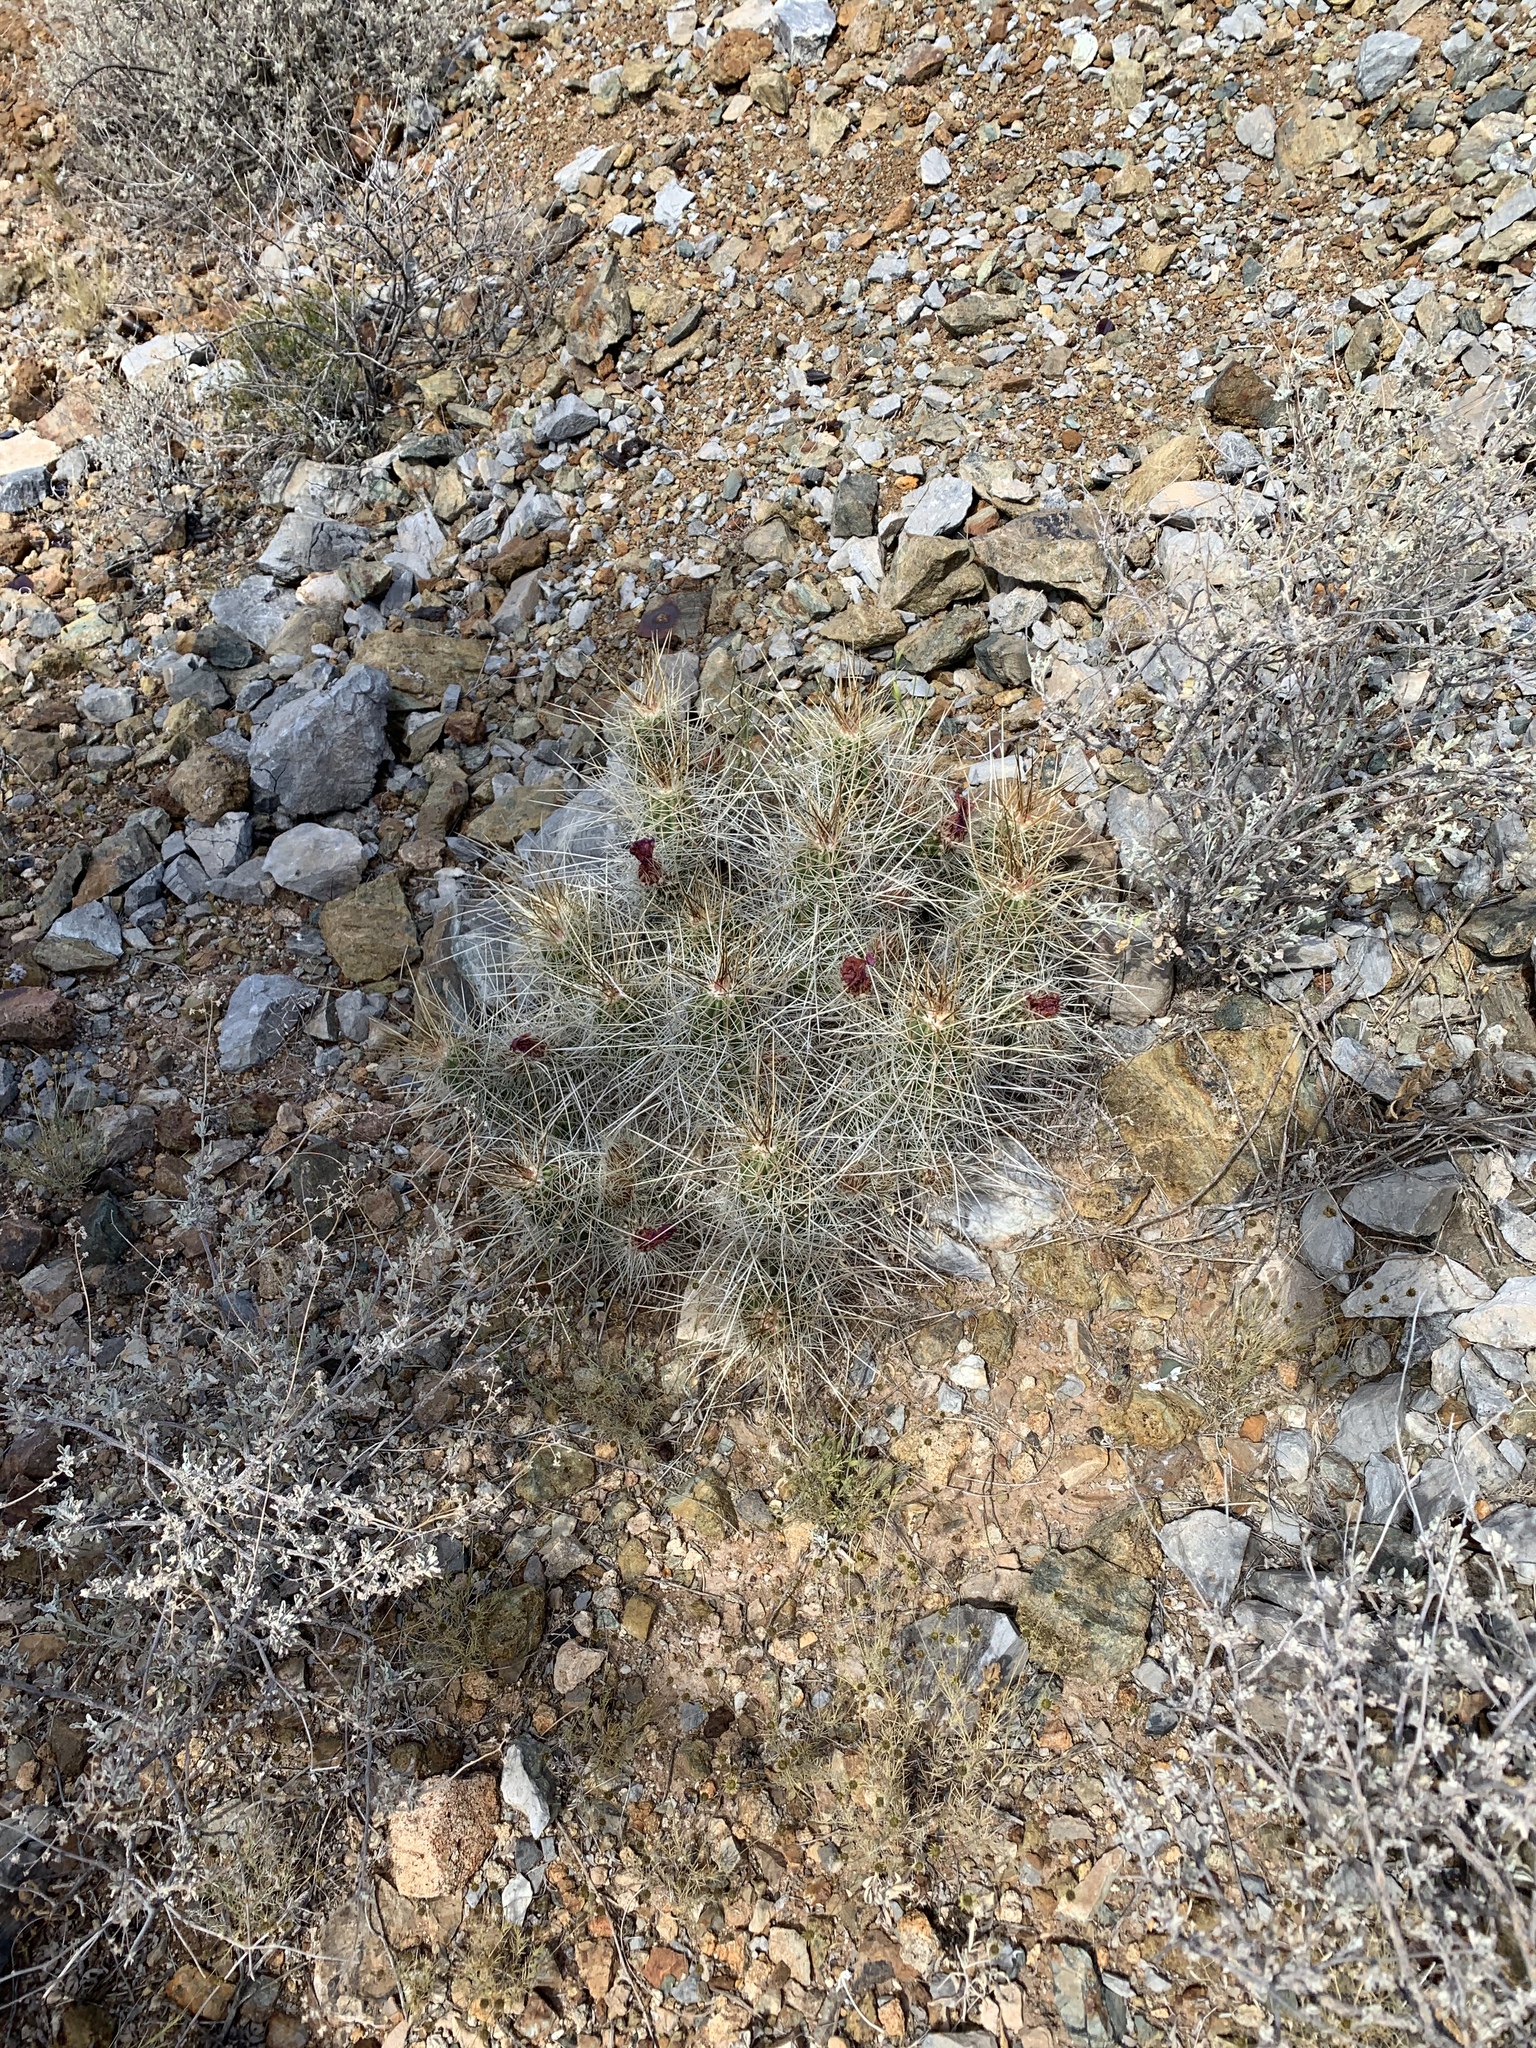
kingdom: Plantae
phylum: Tracheophyta
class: Magnoliopsida
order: Caryophyllales
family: Cactaceae
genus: Echinocereus
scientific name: Echinocereus stramineus
